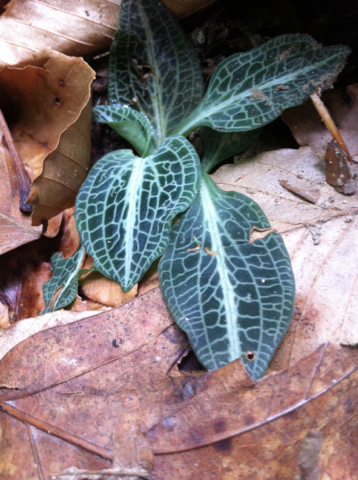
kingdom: Plantae
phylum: Tracheophyta
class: Liliopsida
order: Asparagales
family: Orchidaceae
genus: Goodyera
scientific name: Goodyera pubescens
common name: Downy rattlesnake-plantain
